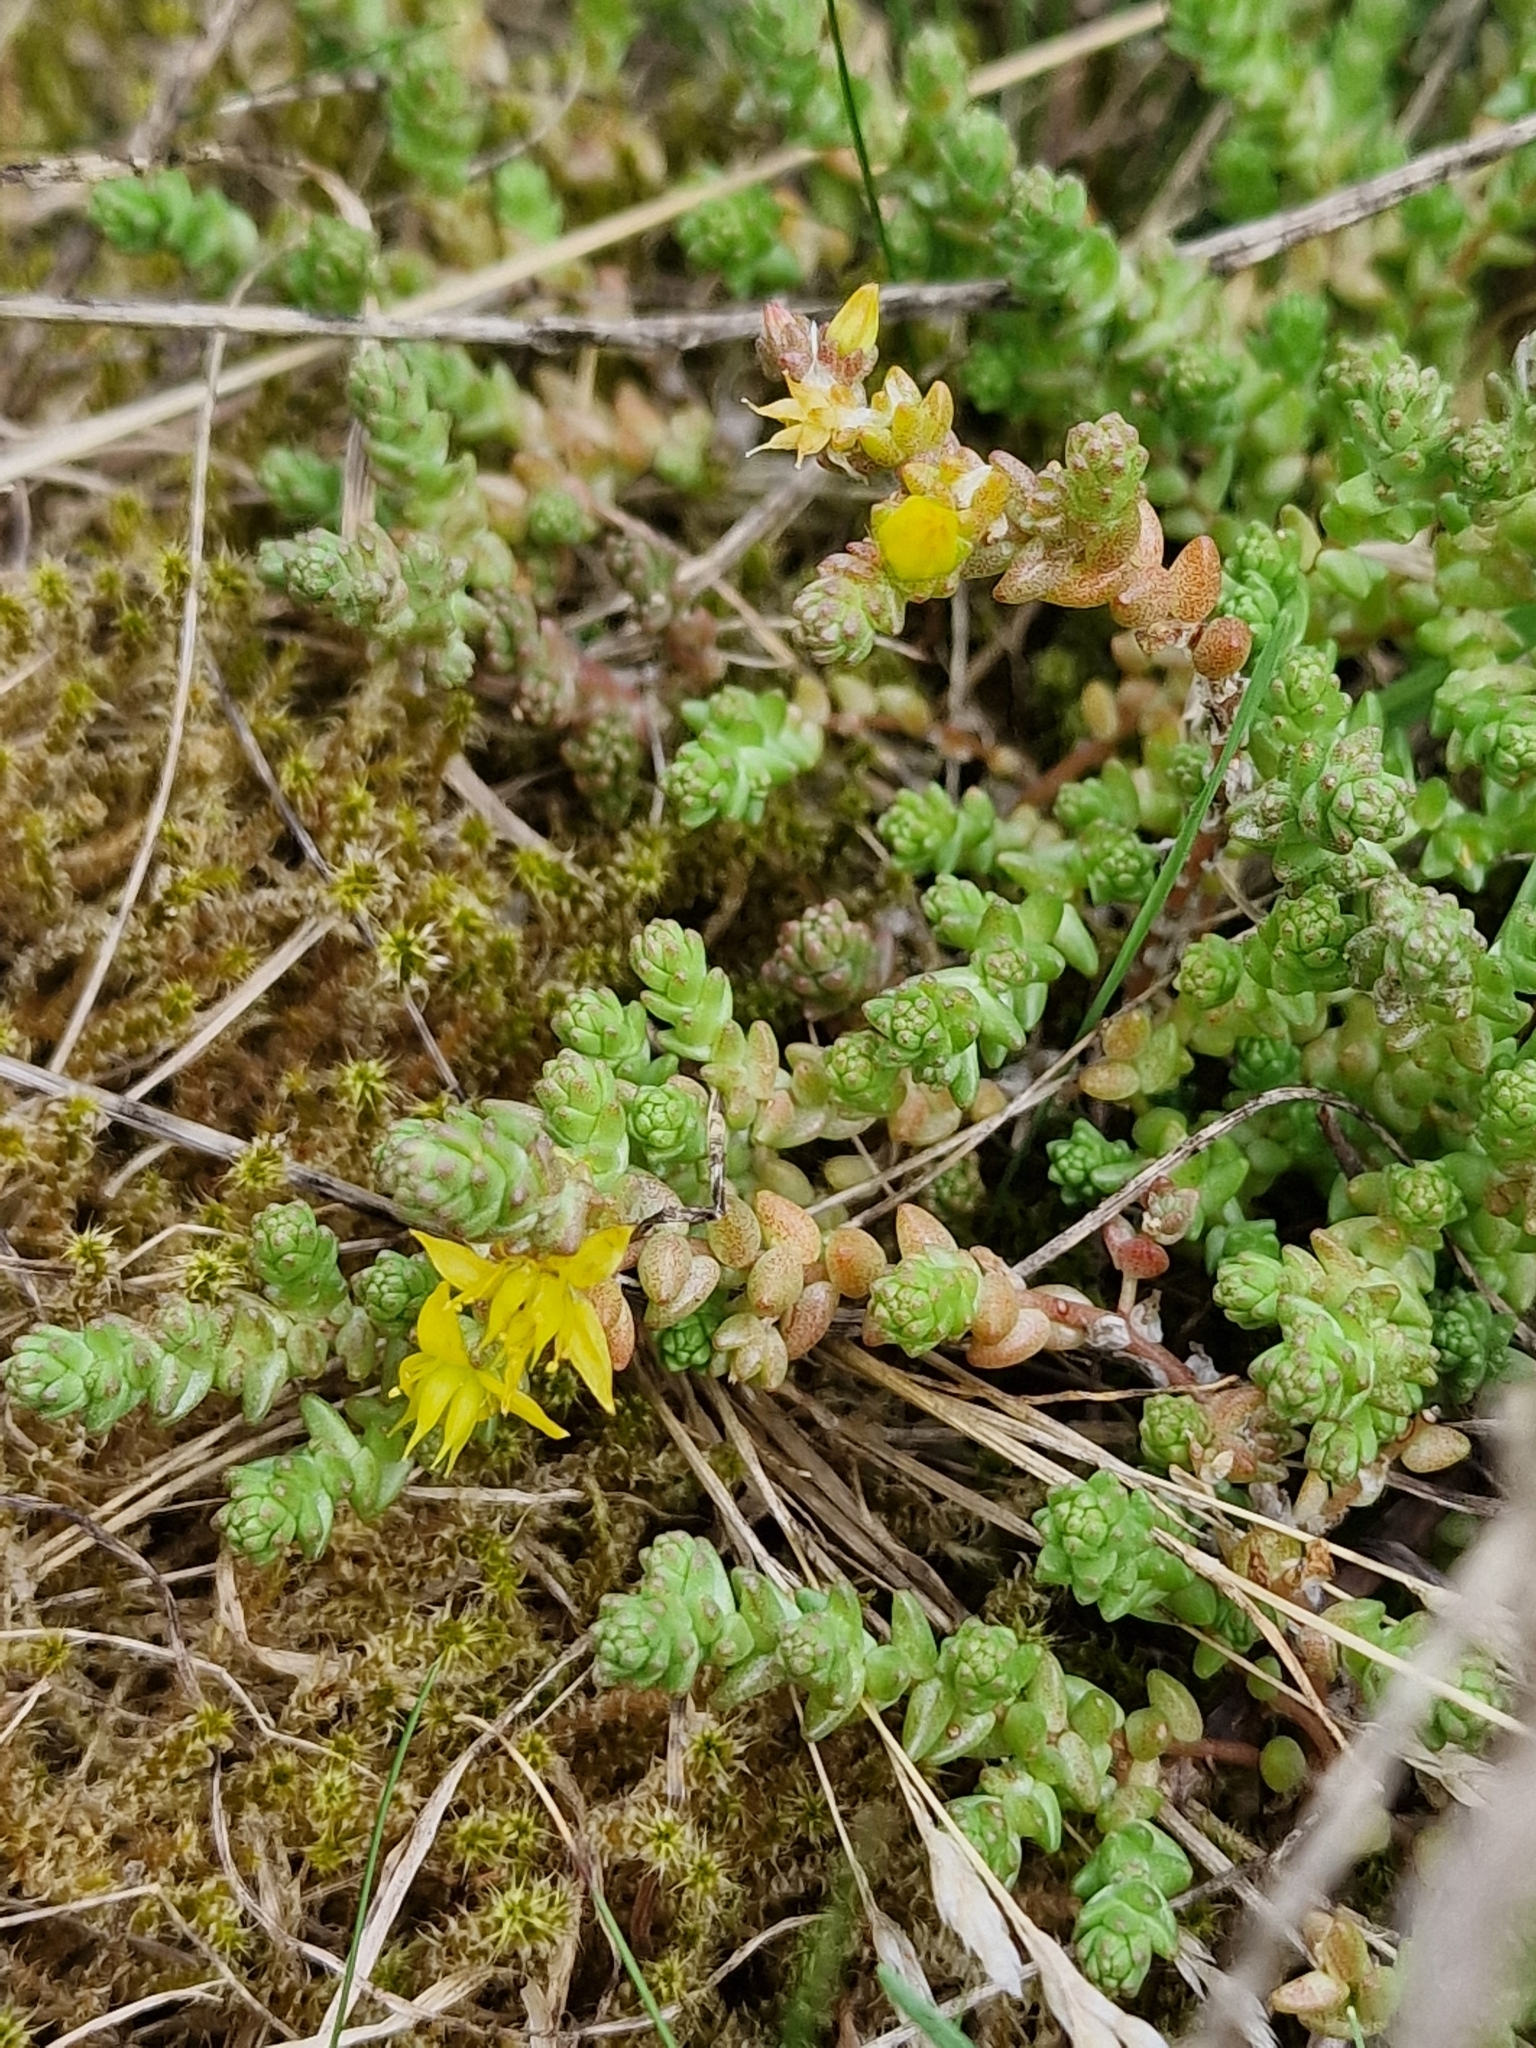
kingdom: Plantae
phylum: Tracheophyta
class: Magnoliopsida
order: Saxifragales
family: Crassulaceae
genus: Sedum
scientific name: Sedum acre
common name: Biting stonecrop
